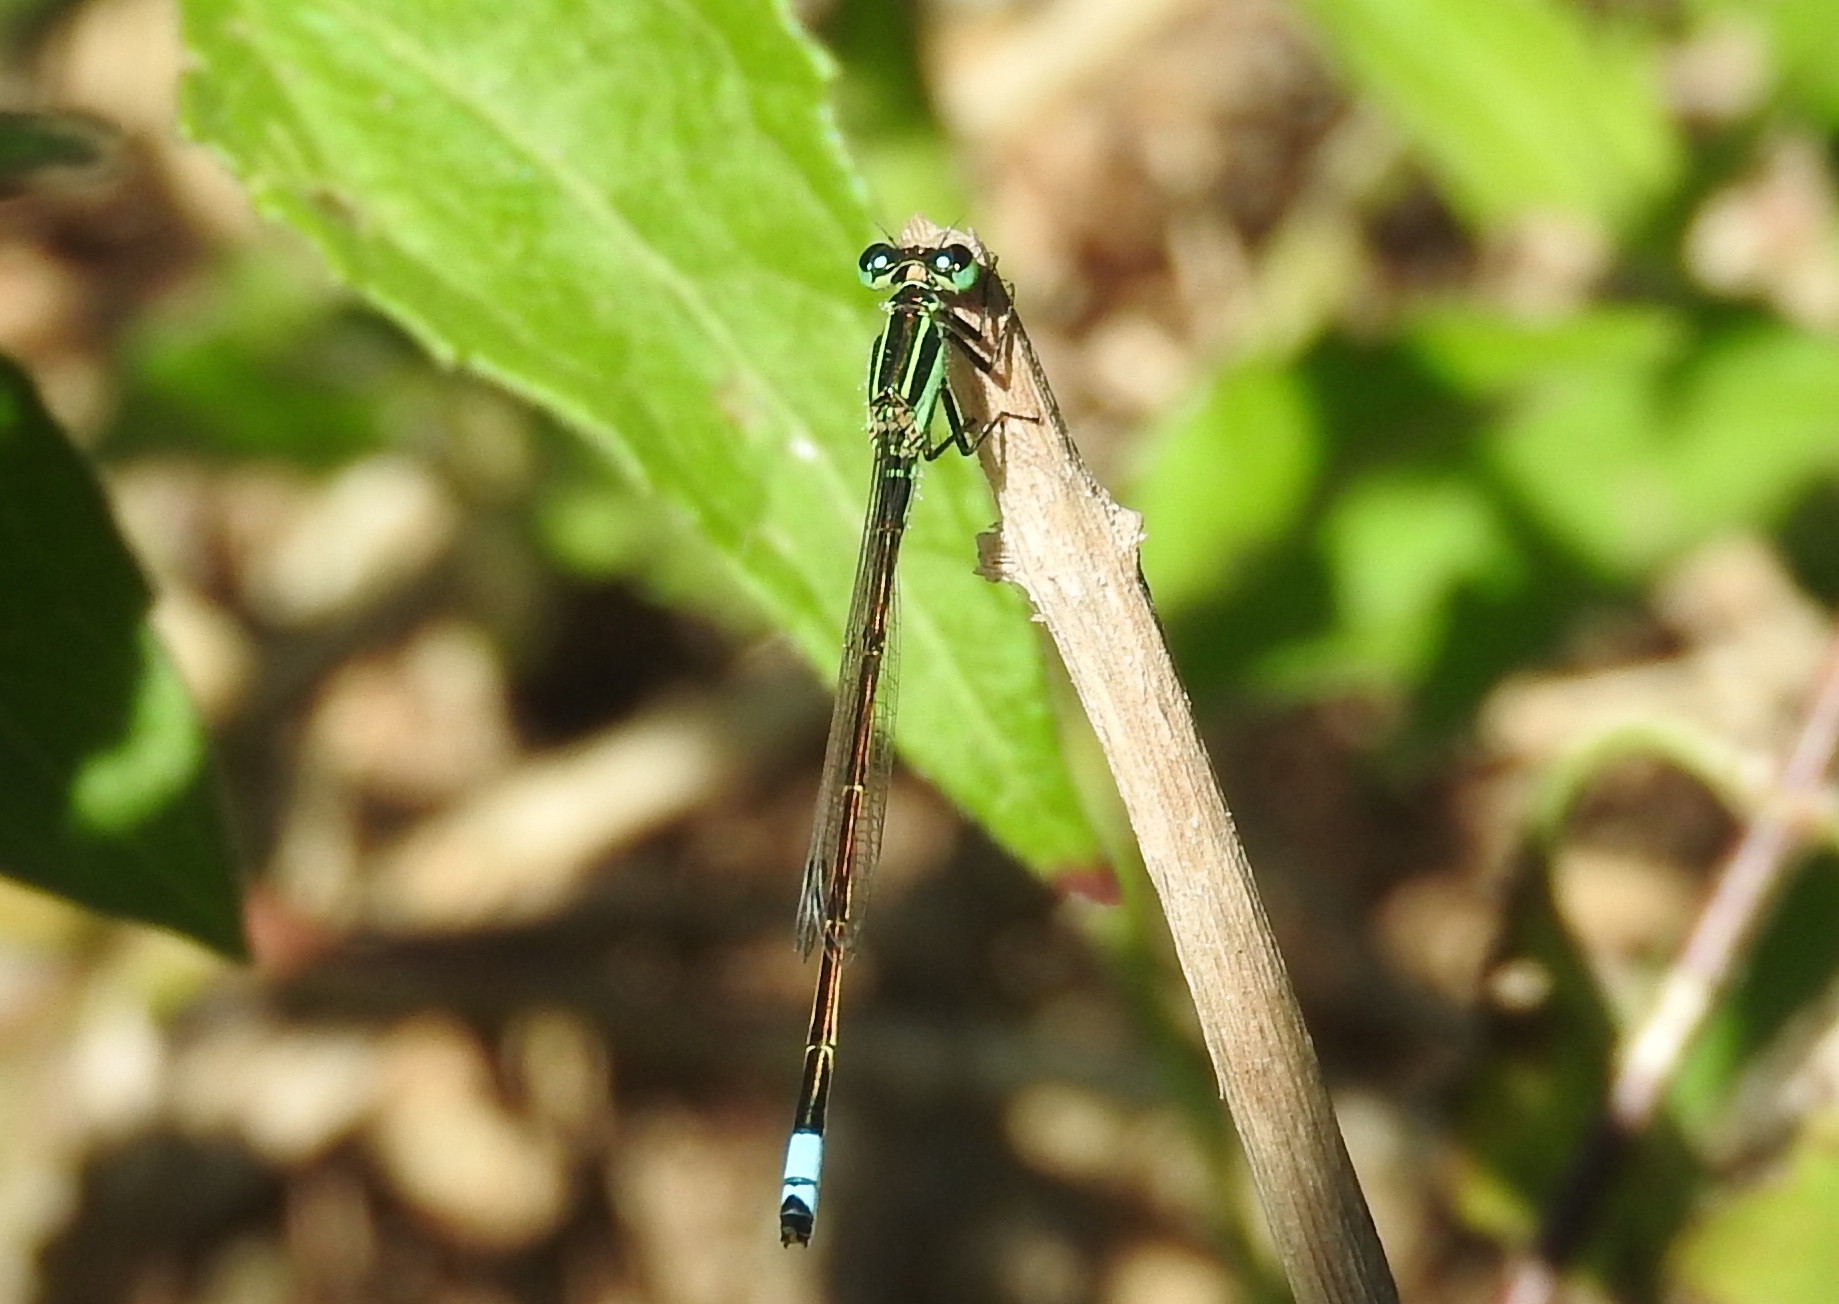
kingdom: Animalia
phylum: Arthropoda
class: Insecta
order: Odonata
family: Coenagrionidae
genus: Ischnura
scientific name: Ischnura ramburii
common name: Rambur's forktail
